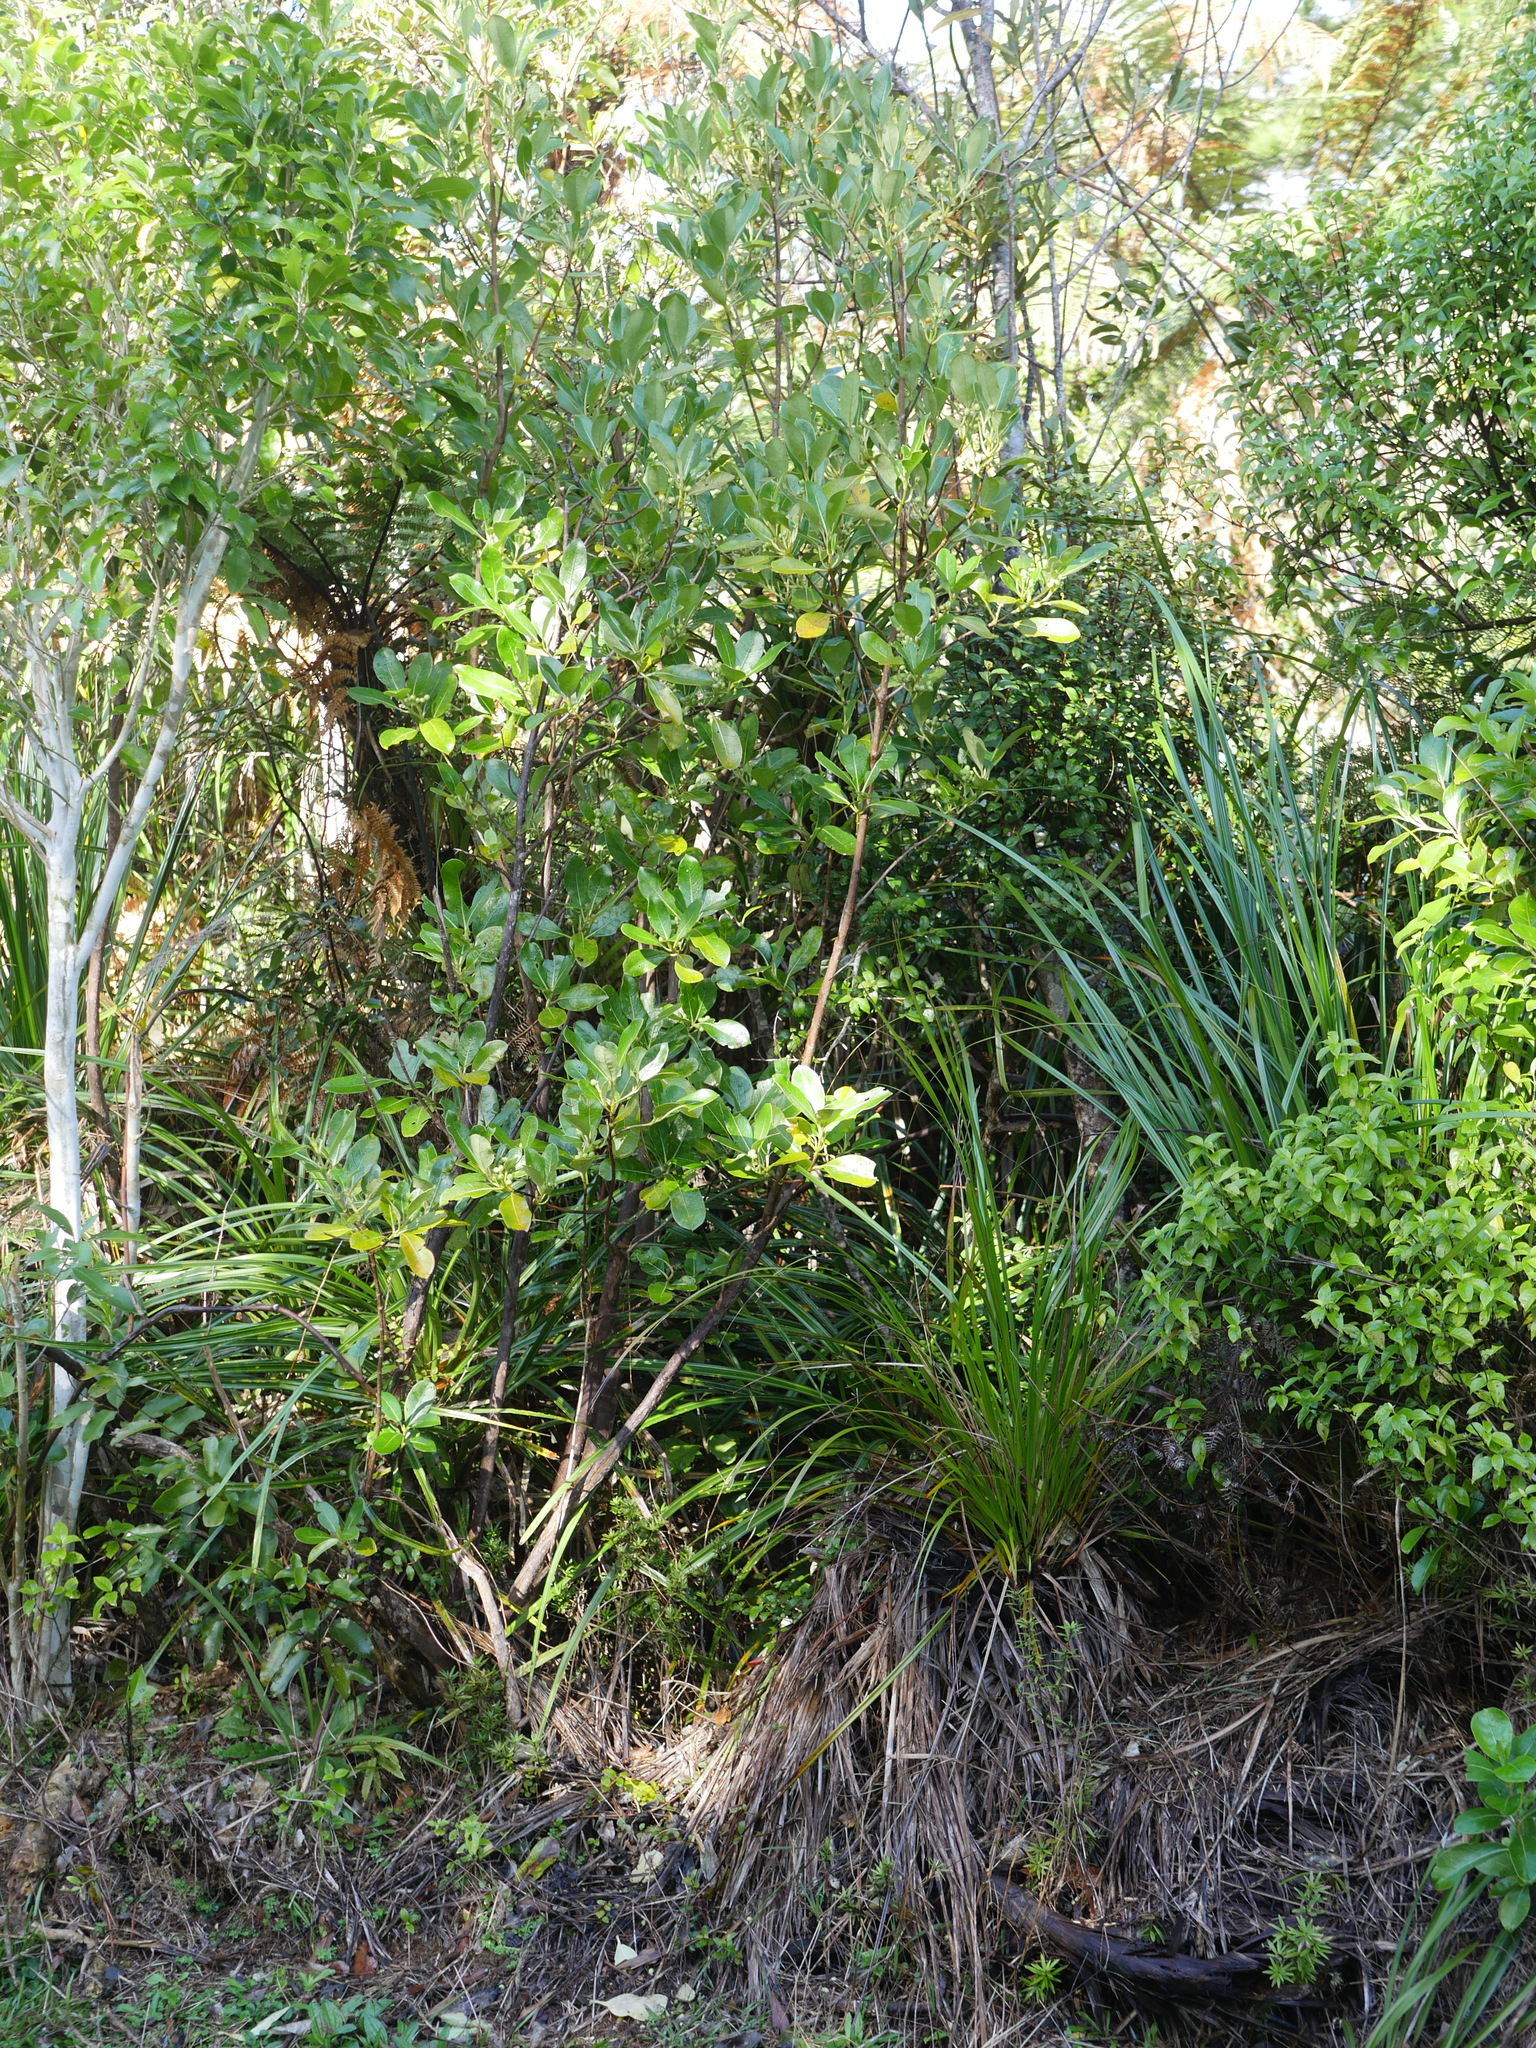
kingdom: Plantae
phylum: Tracheophyta
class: Magnoliopsida
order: Gentianales
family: Rubiaceae
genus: Coprosma
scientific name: Coprosma lucida
